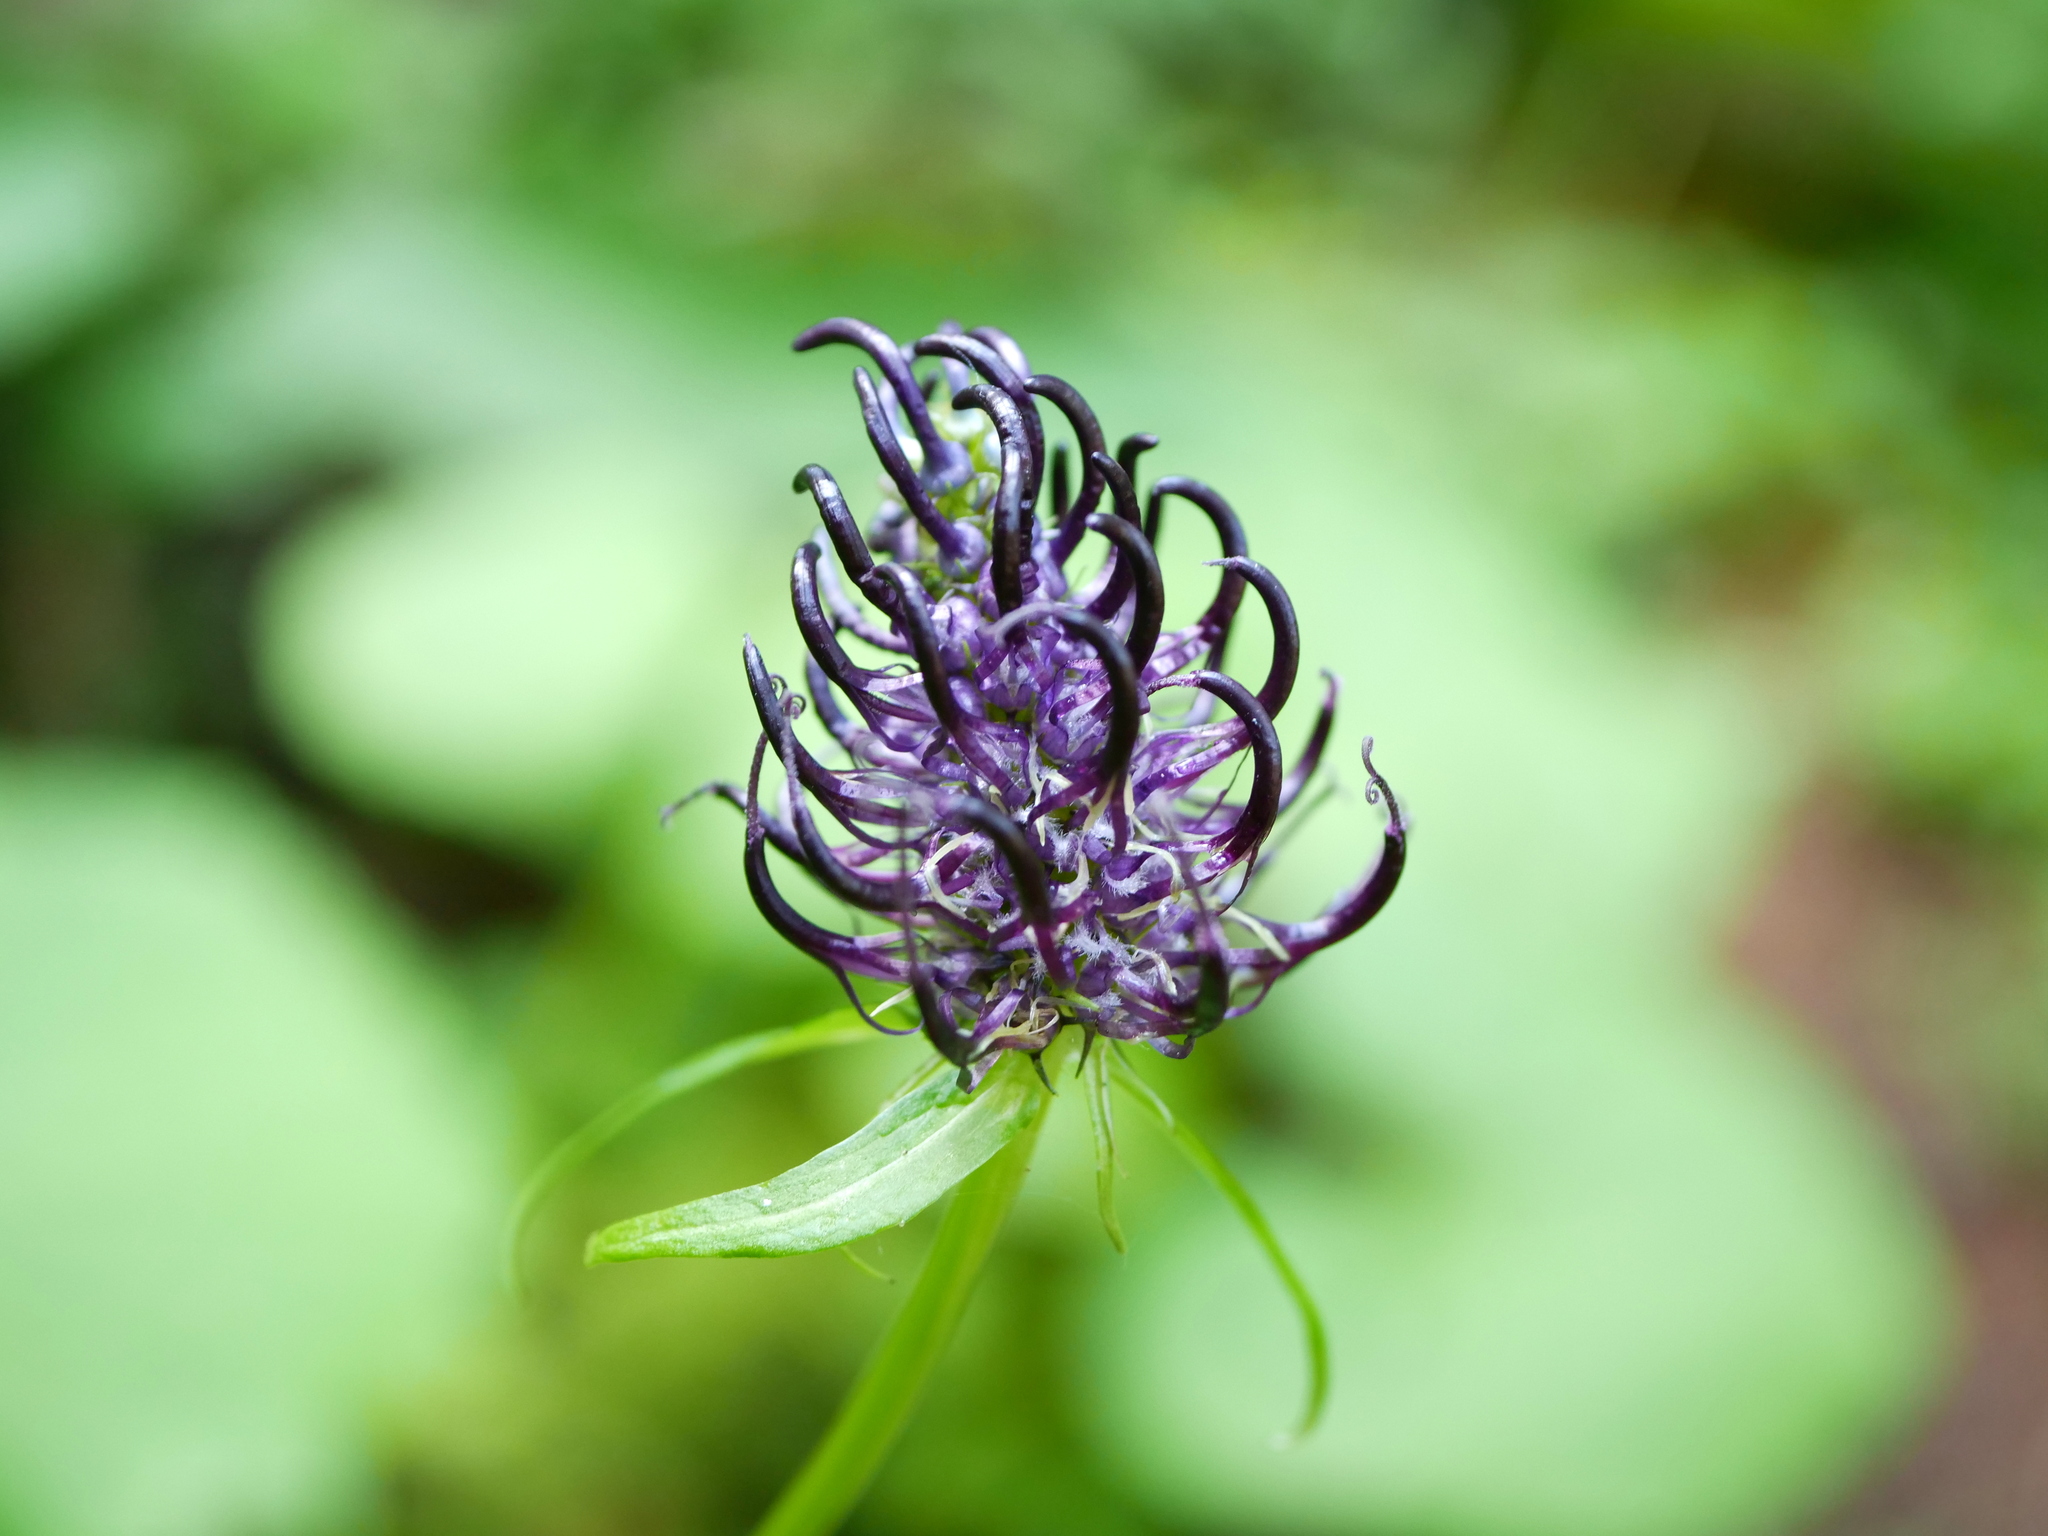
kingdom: Plantae
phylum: Tracheophyta
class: Magnoliopsida
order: Asterales
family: Campanulaceae
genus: Phyteuma
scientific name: Phyteuma ovatum
